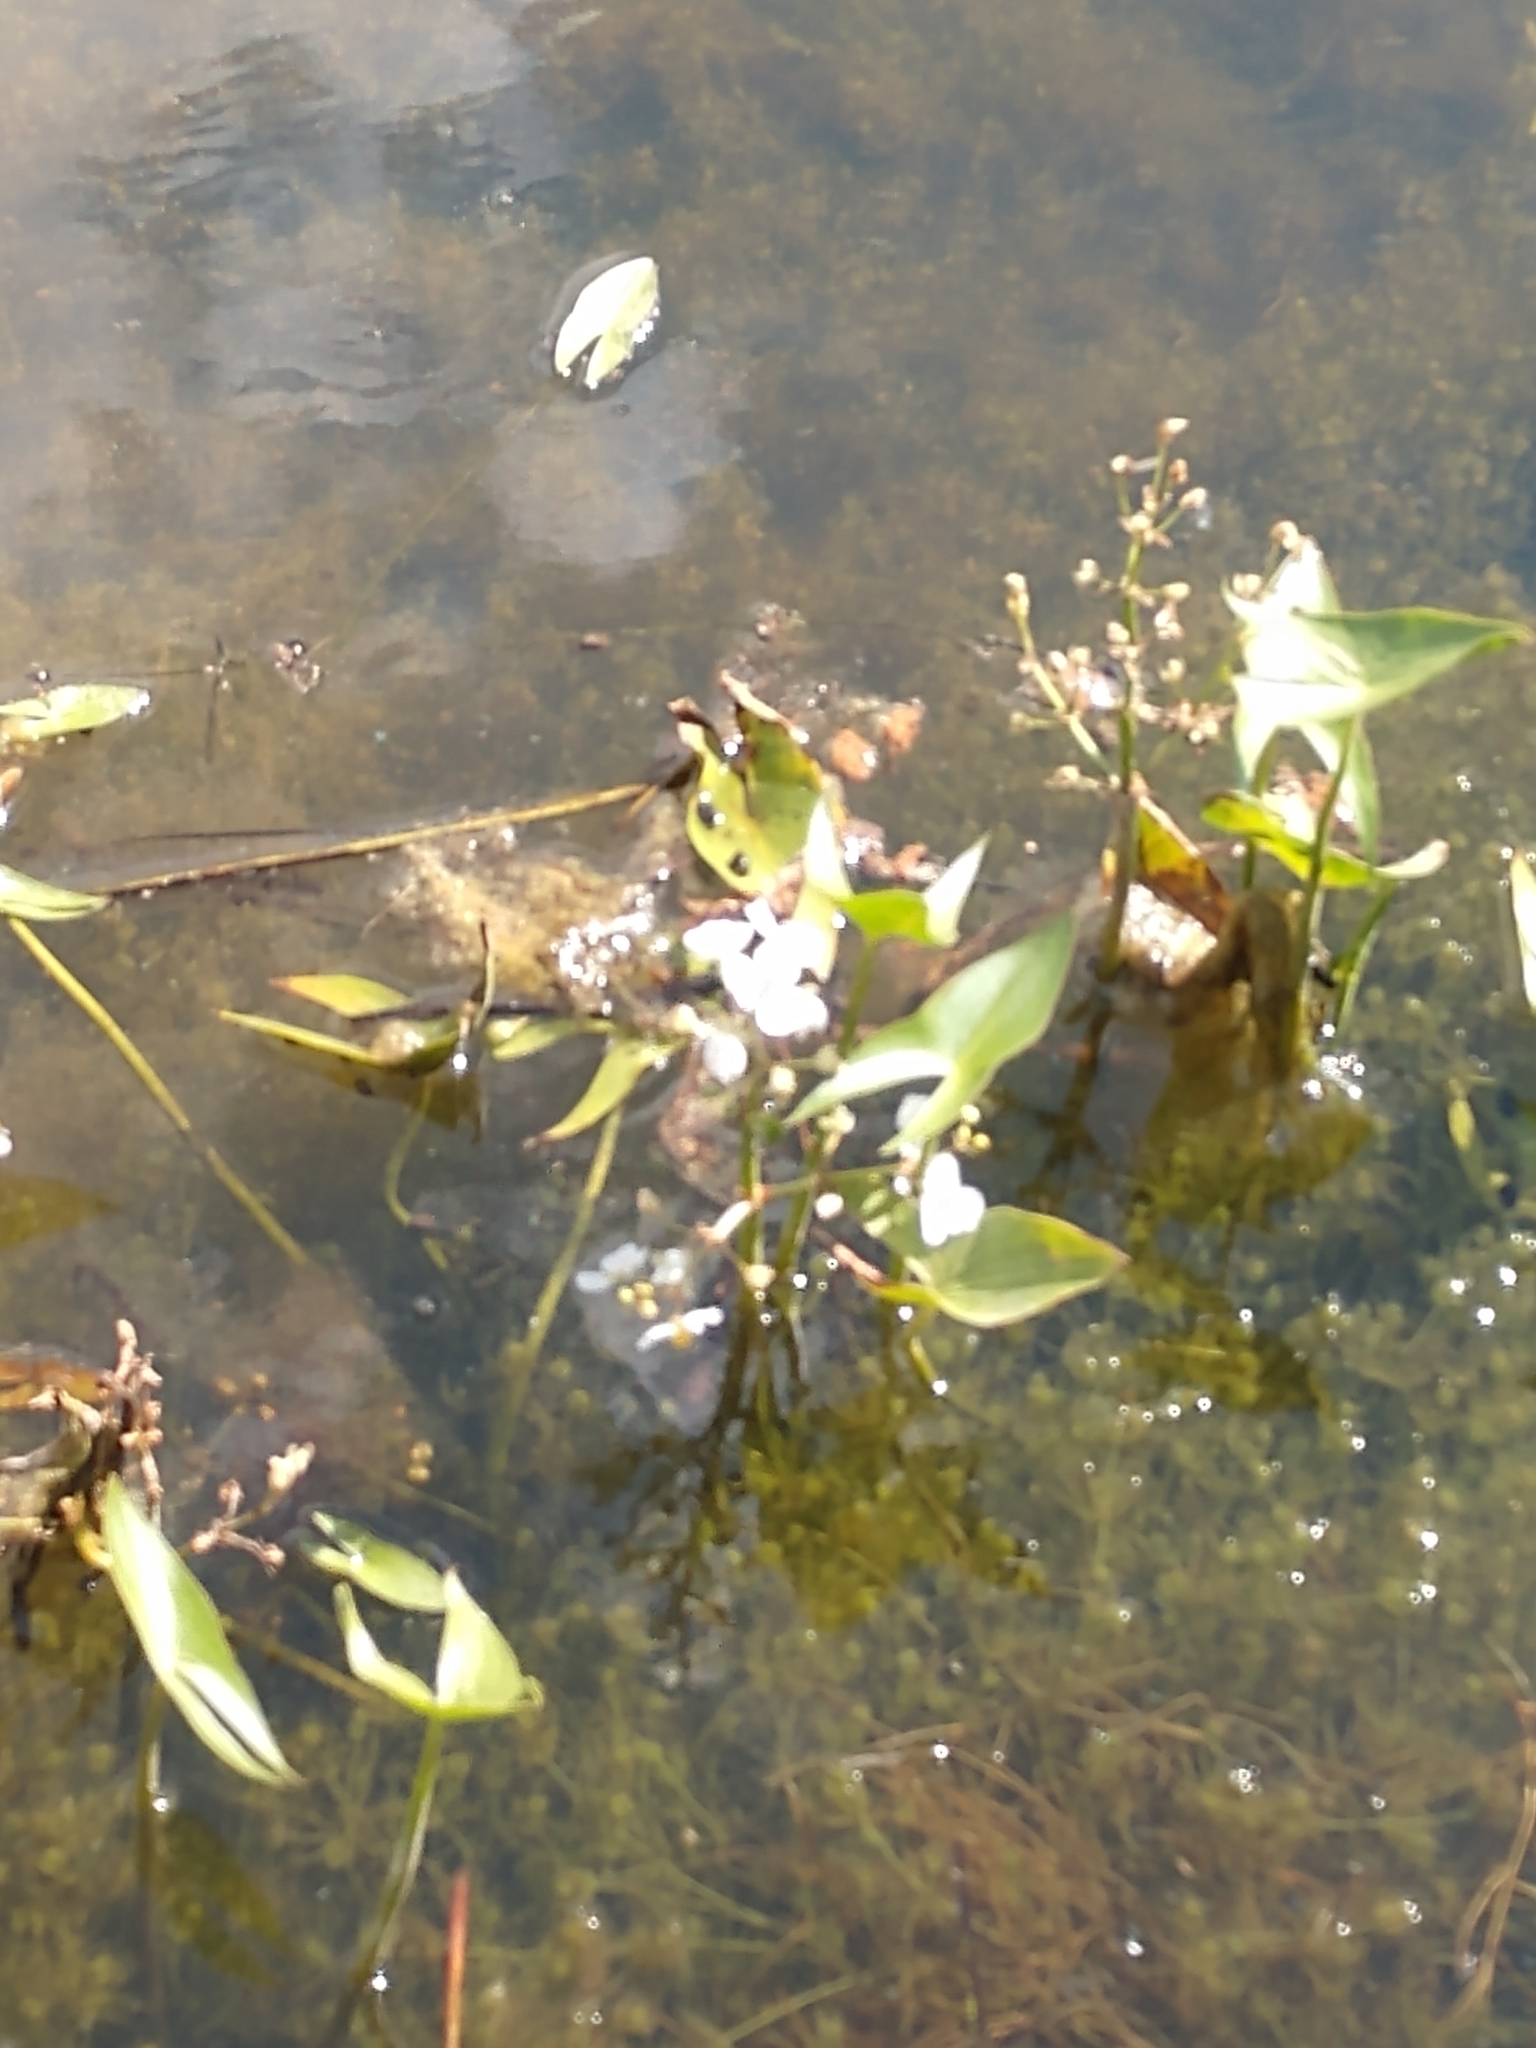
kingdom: Plantae
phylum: Tracheophyta
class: Liliopsida
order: Alismatales
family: Alismataceae
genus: Sagittaria
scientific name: Sagittaria cuneata
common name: Northern arrowhead
